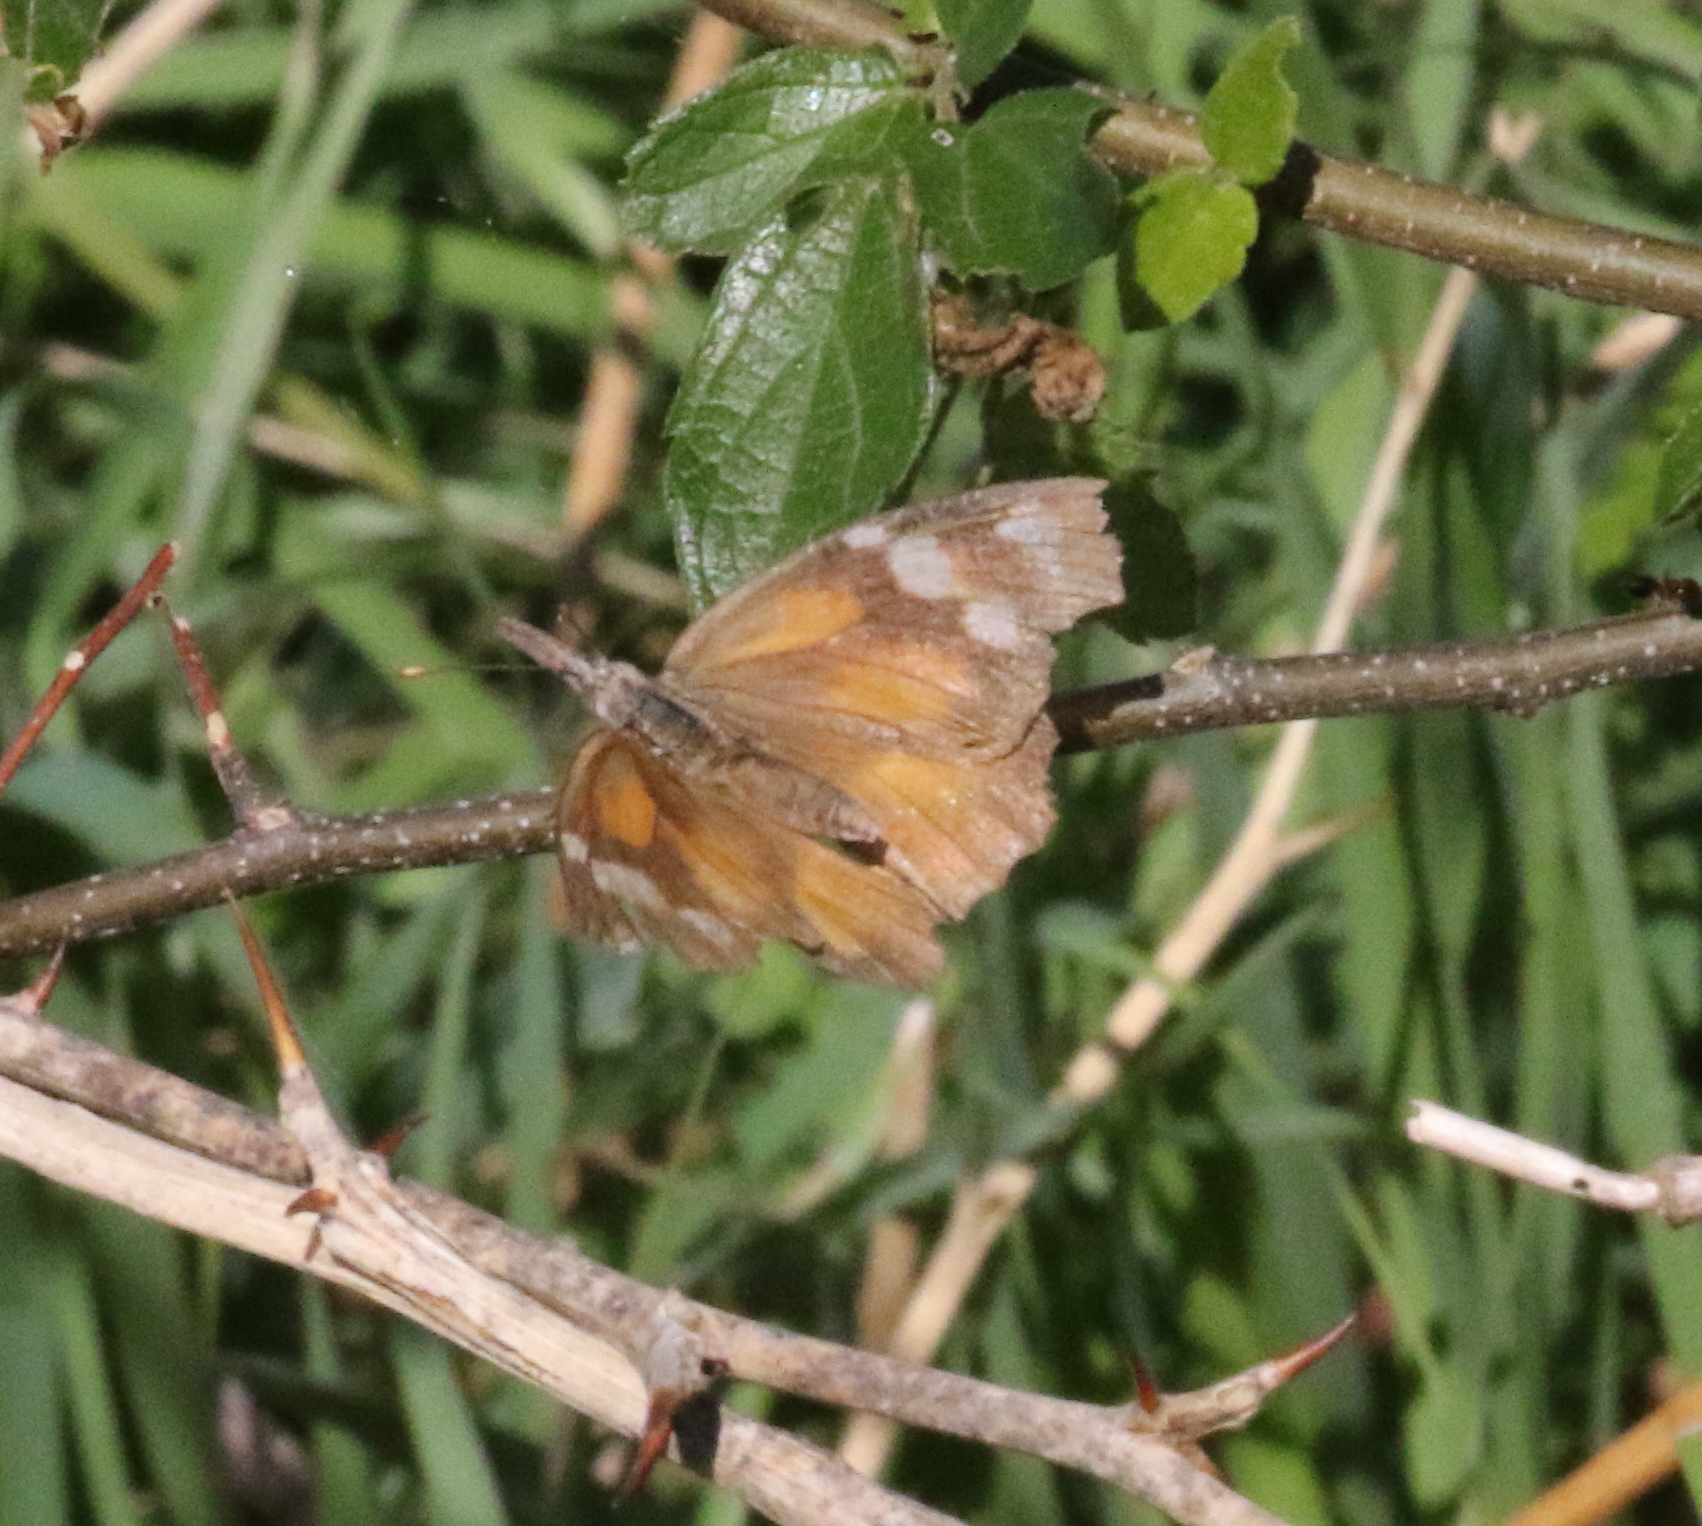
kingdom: Animalia
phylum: Arthropoda
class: Insecta
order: Lepidoptera
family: Nymphalidae
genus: Libytheana
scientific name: Libytheana carinenta
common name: American snout
